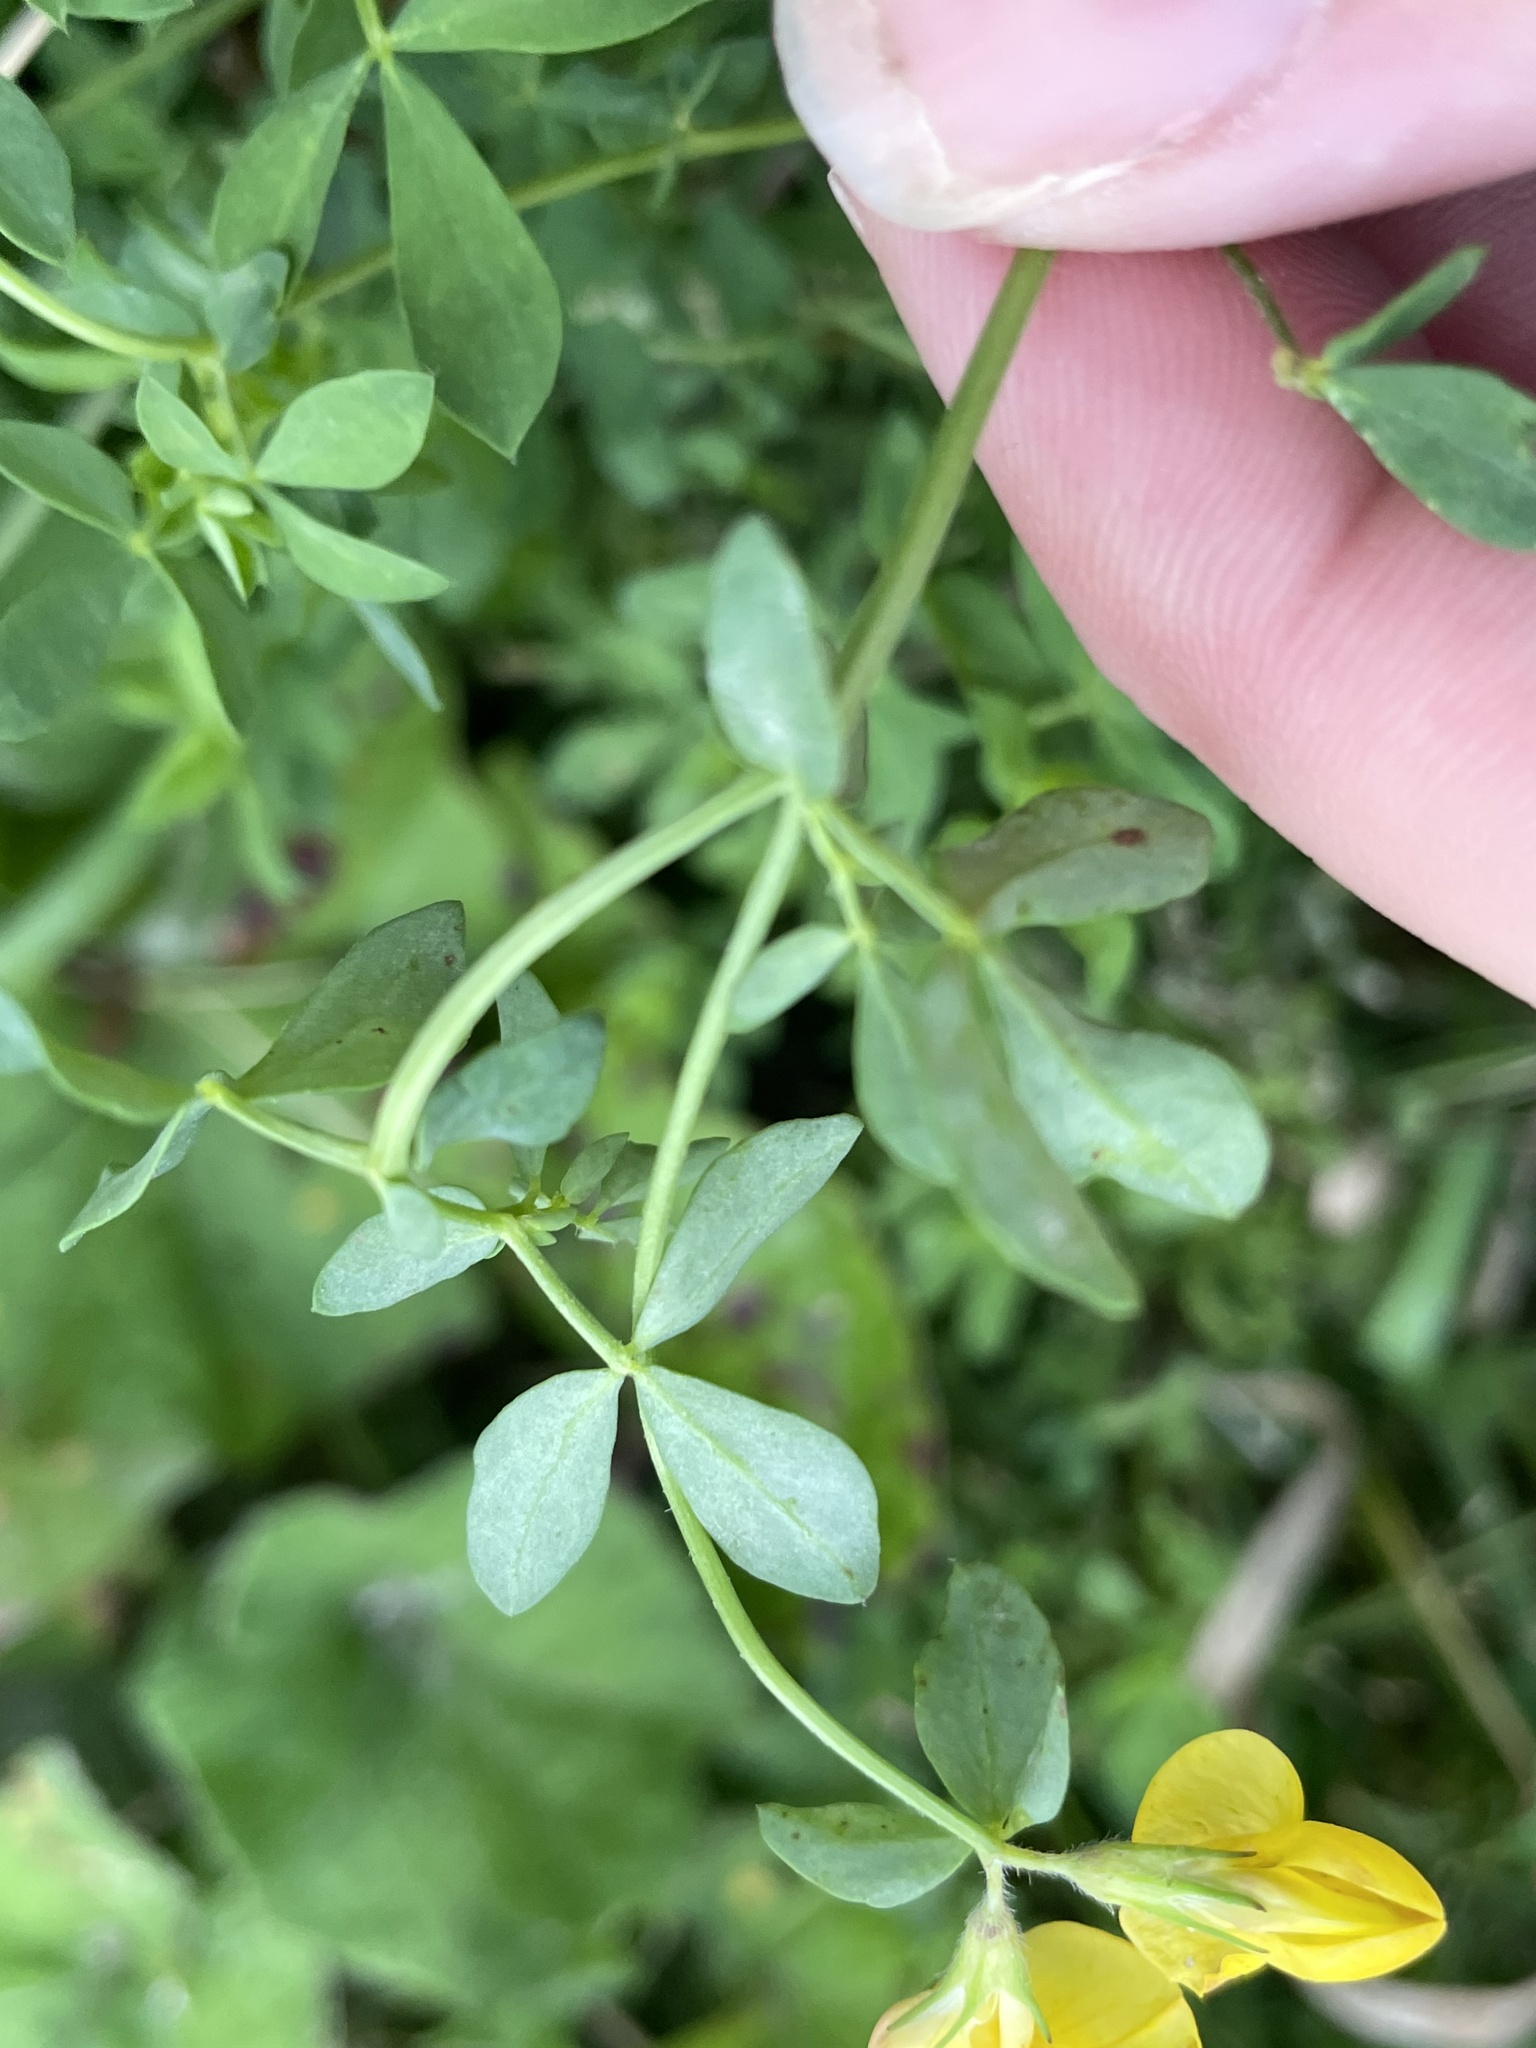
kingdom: Plantae
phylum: Tracheophyta
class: Magnoliopsida
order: Fabales
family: Fabaceae
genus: Lotus
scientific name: Lotus corniculatus
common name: Common bird's-foot-trefoil
